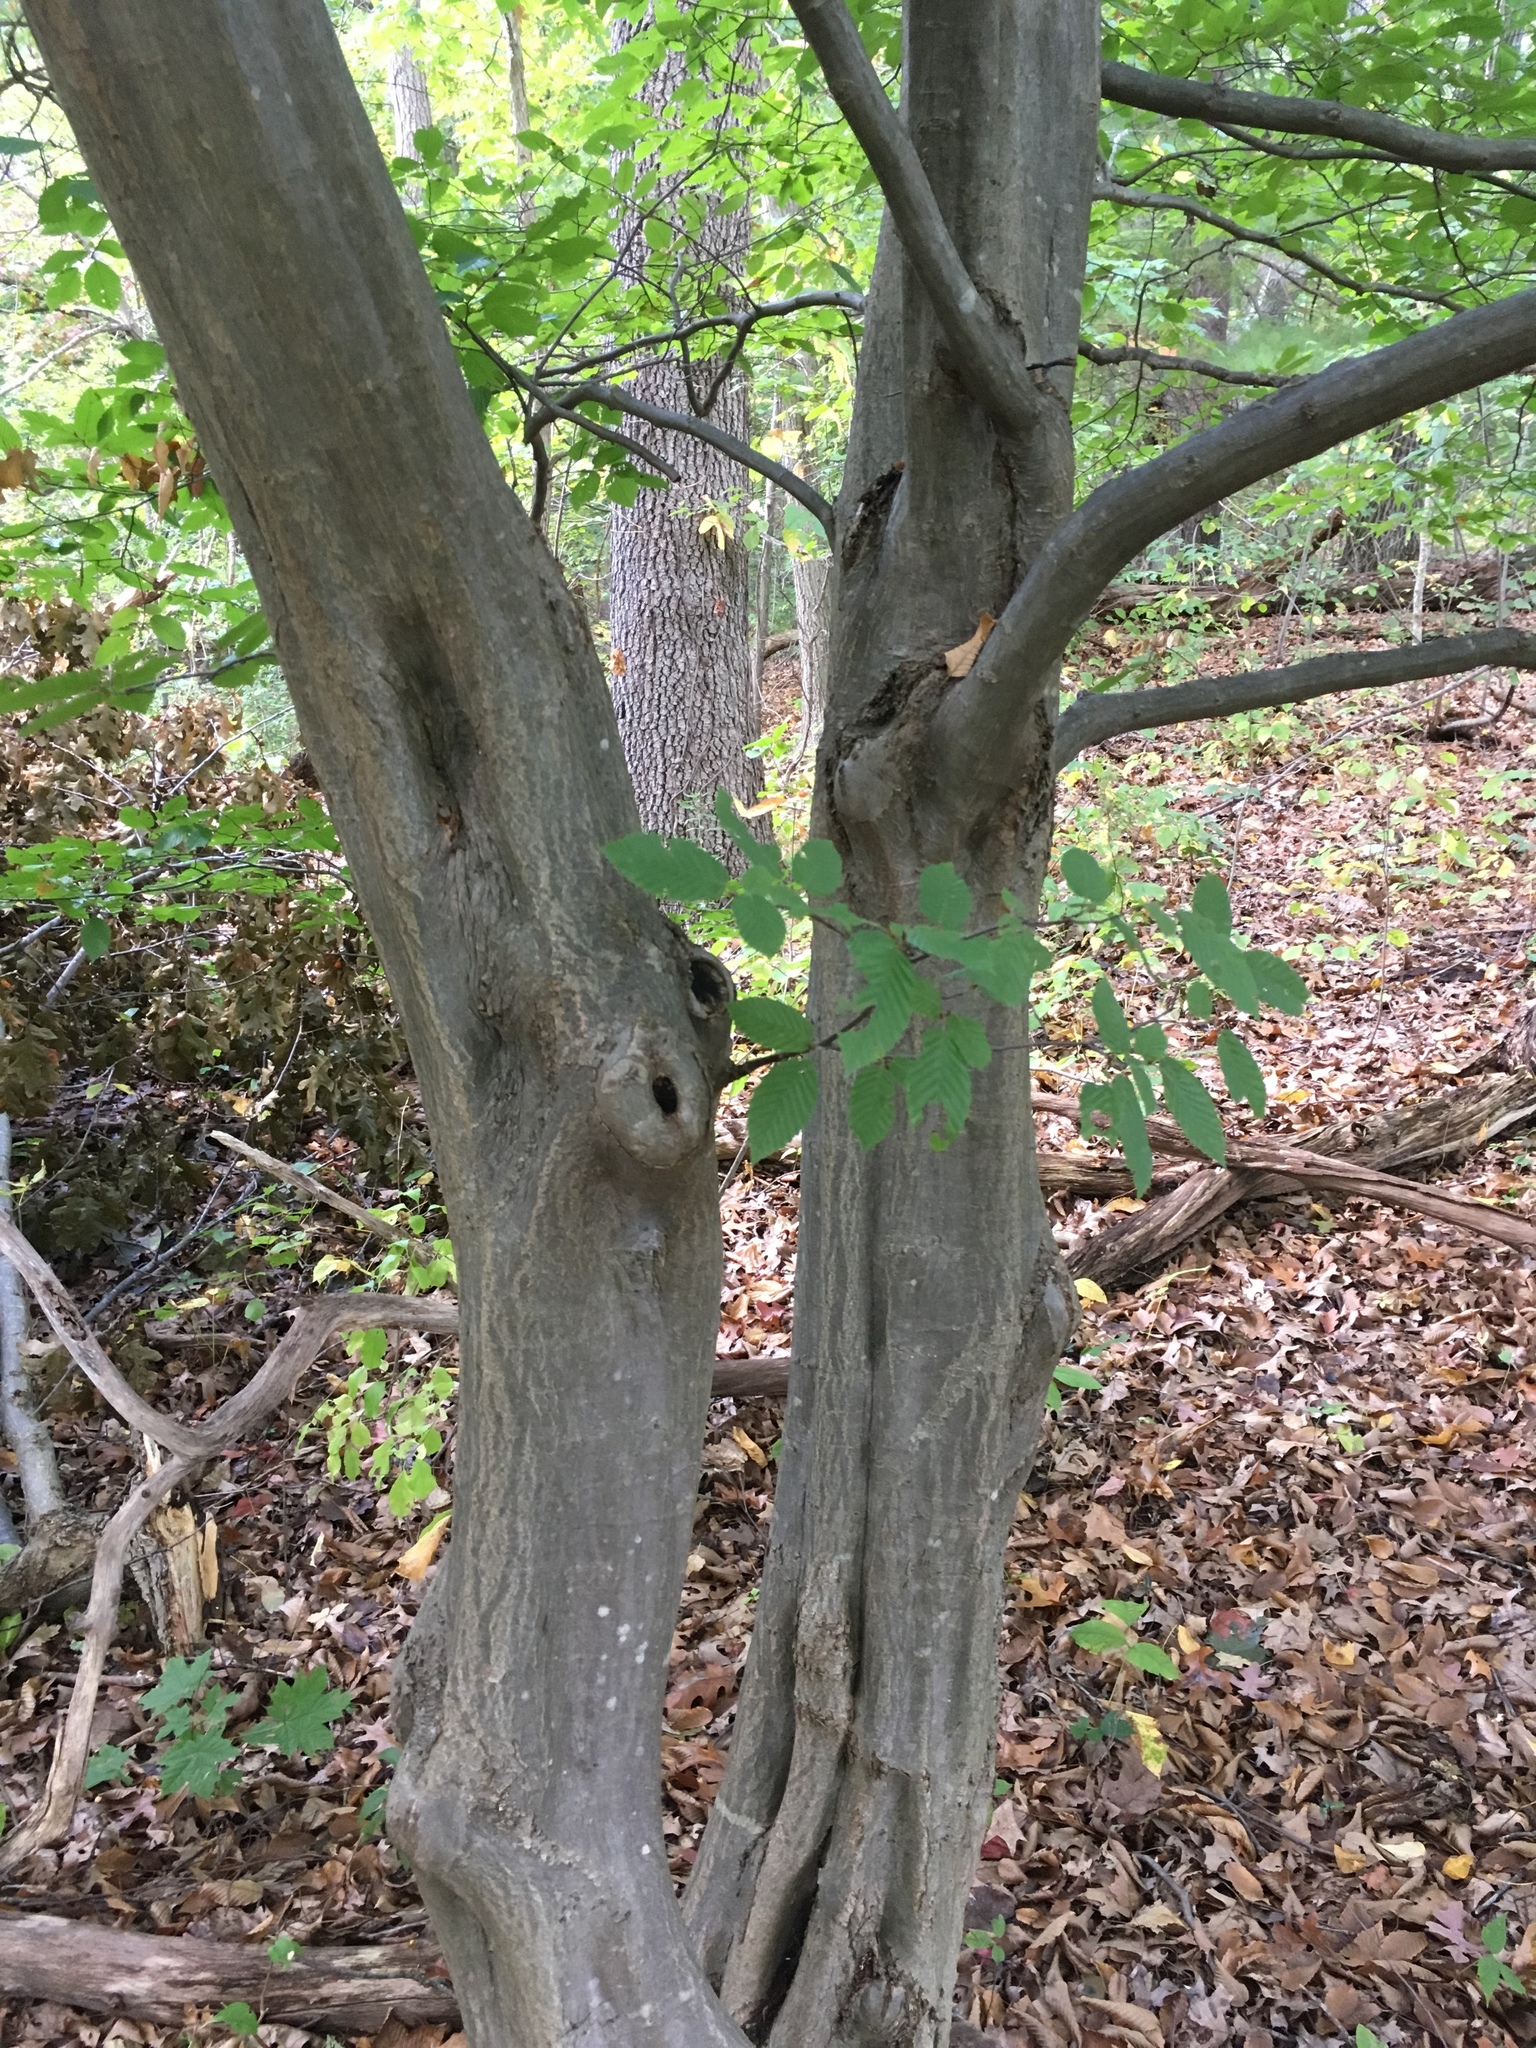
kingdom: Plantae
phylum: Tracheophyta
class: Magnoliopsida
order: Fagales
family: Betulaceae
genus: Carpinus
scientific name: Carpinus caroliniana
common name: American hornbeam
